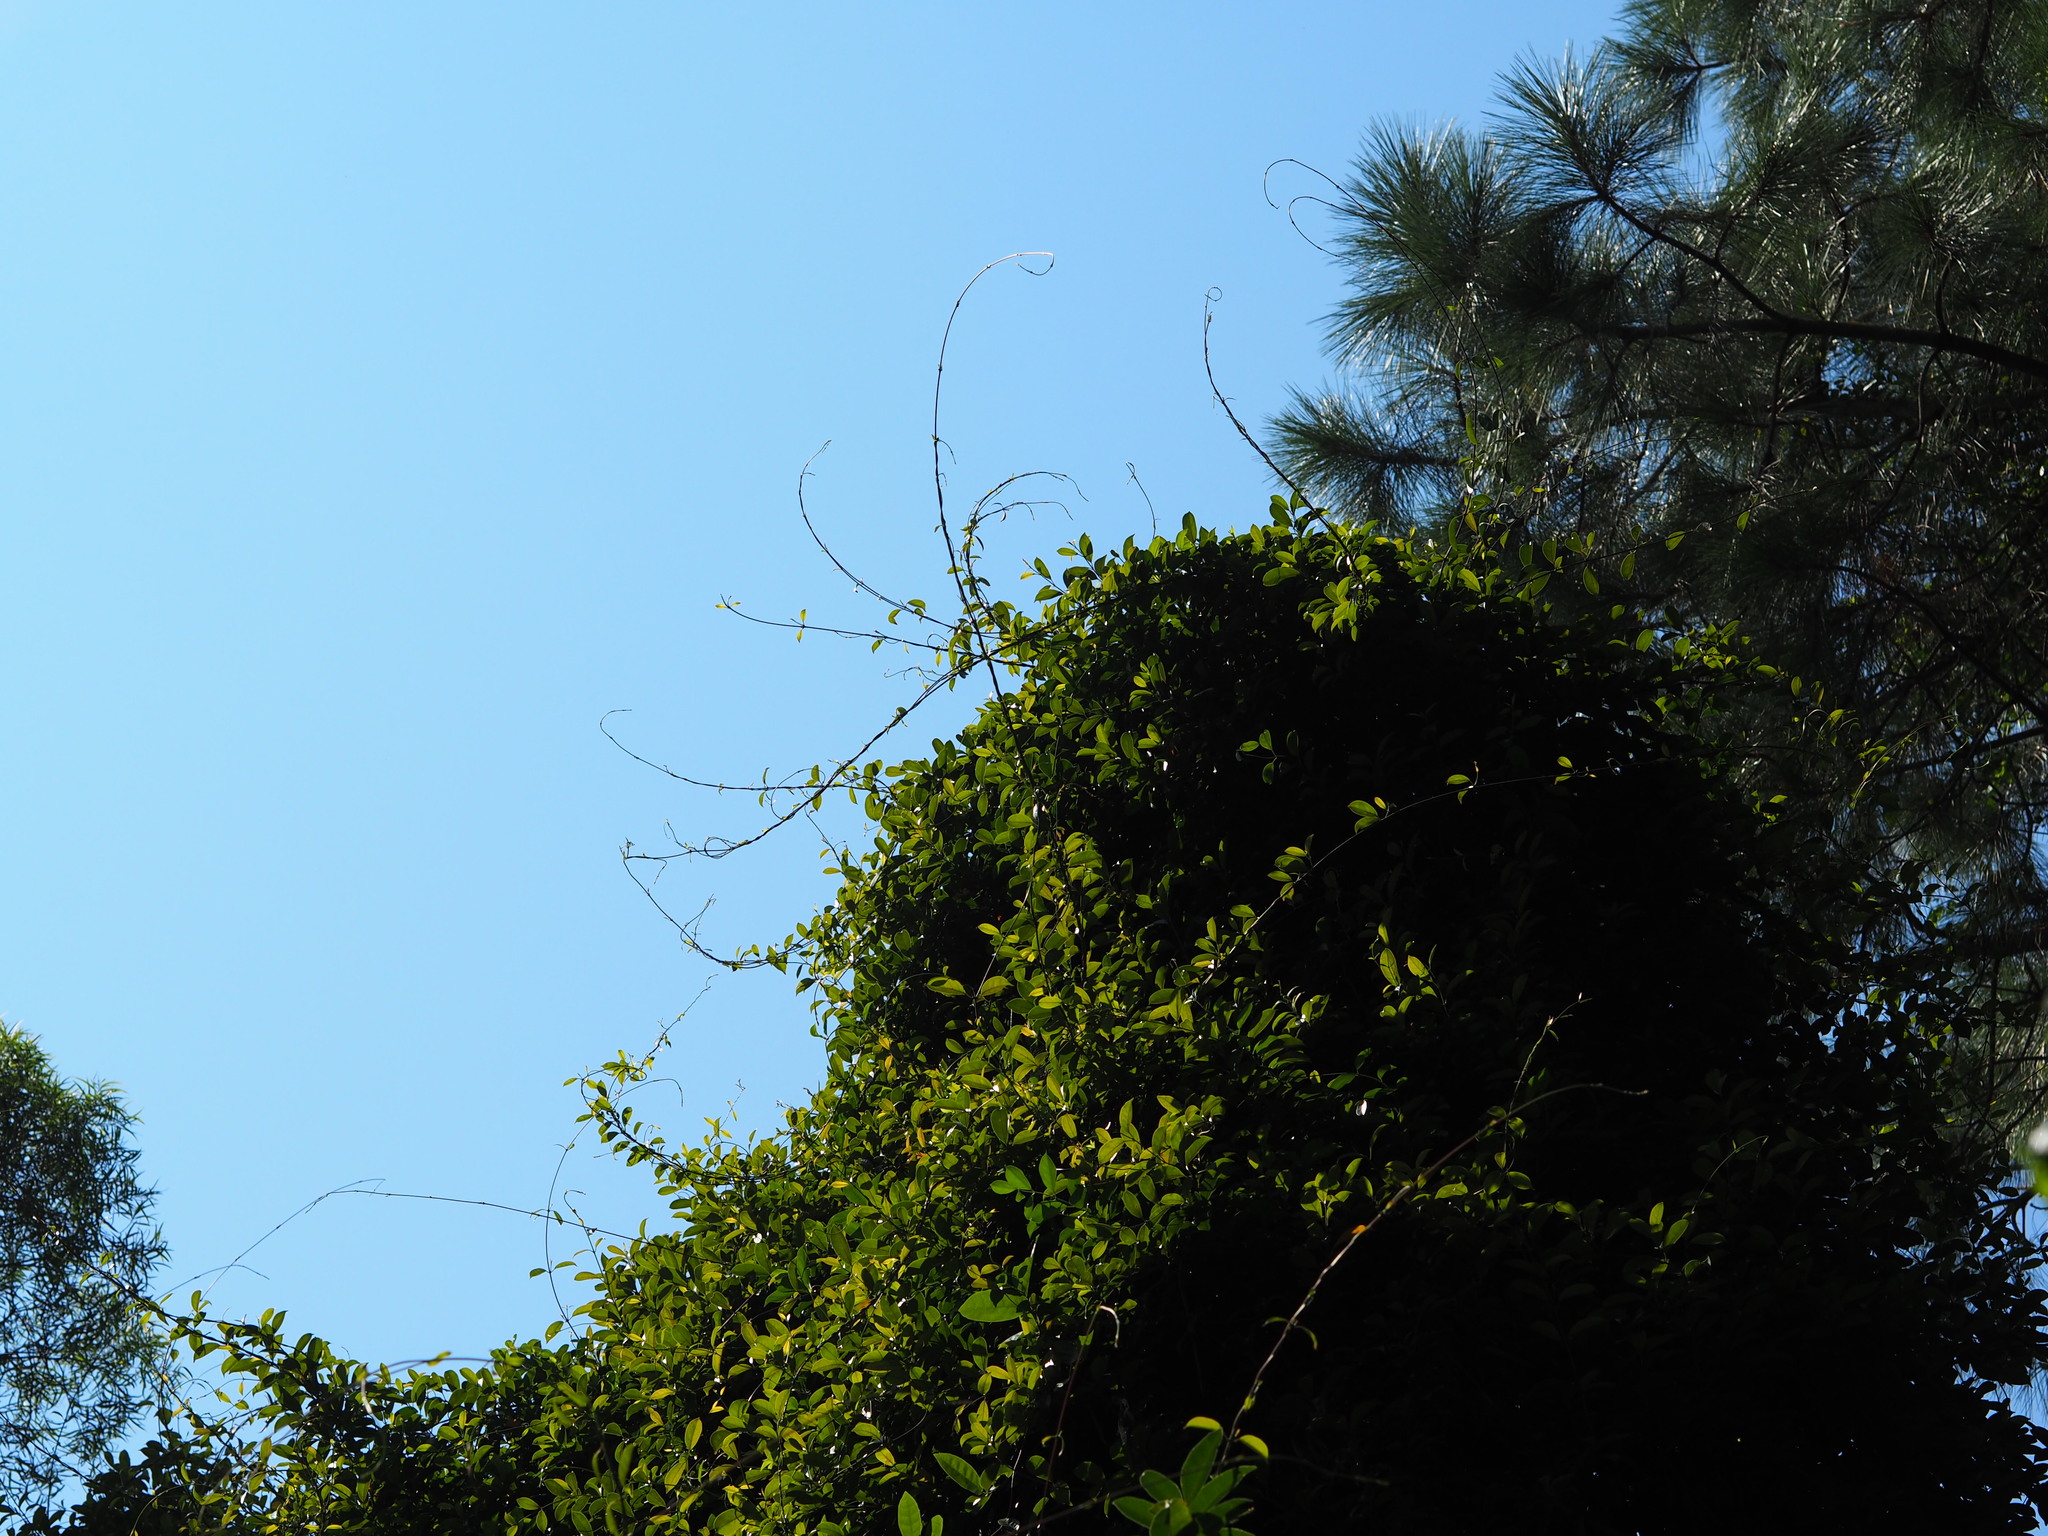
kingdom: Plantae
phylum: Tracheophyta
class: Magnoliopsida
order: Gentianales
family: Apocynaceae
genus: Urceola
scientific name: Urceola rosea
